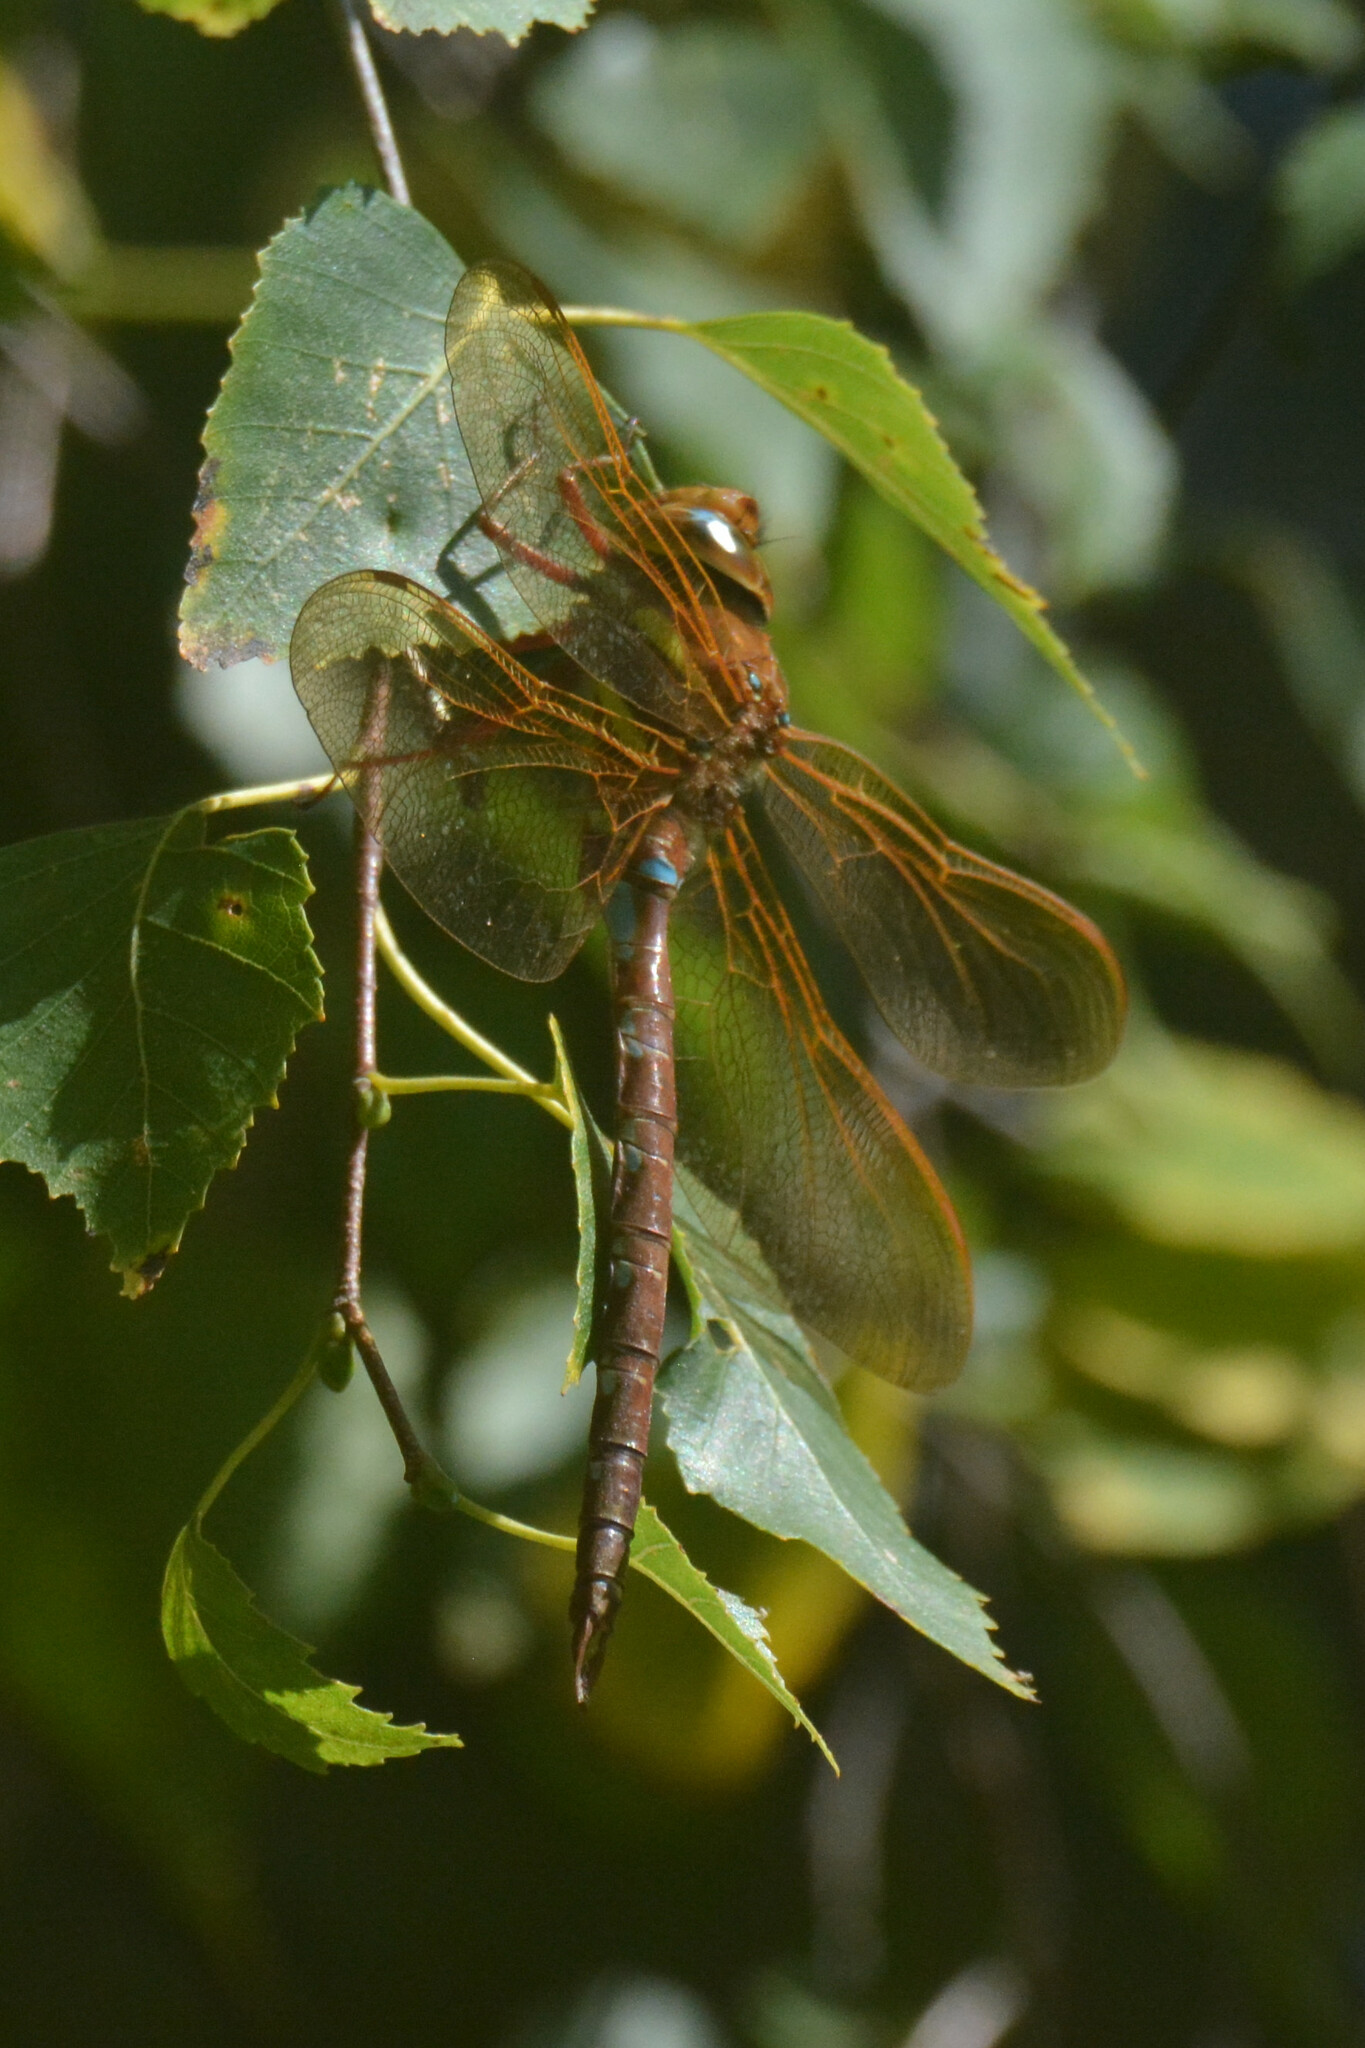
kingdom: Animalia
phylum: Arthropoda
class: Insecta
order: Odonata
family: Aeshnidae
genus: Aeshna
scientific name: Aeshna grandis
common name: Brown hawker
